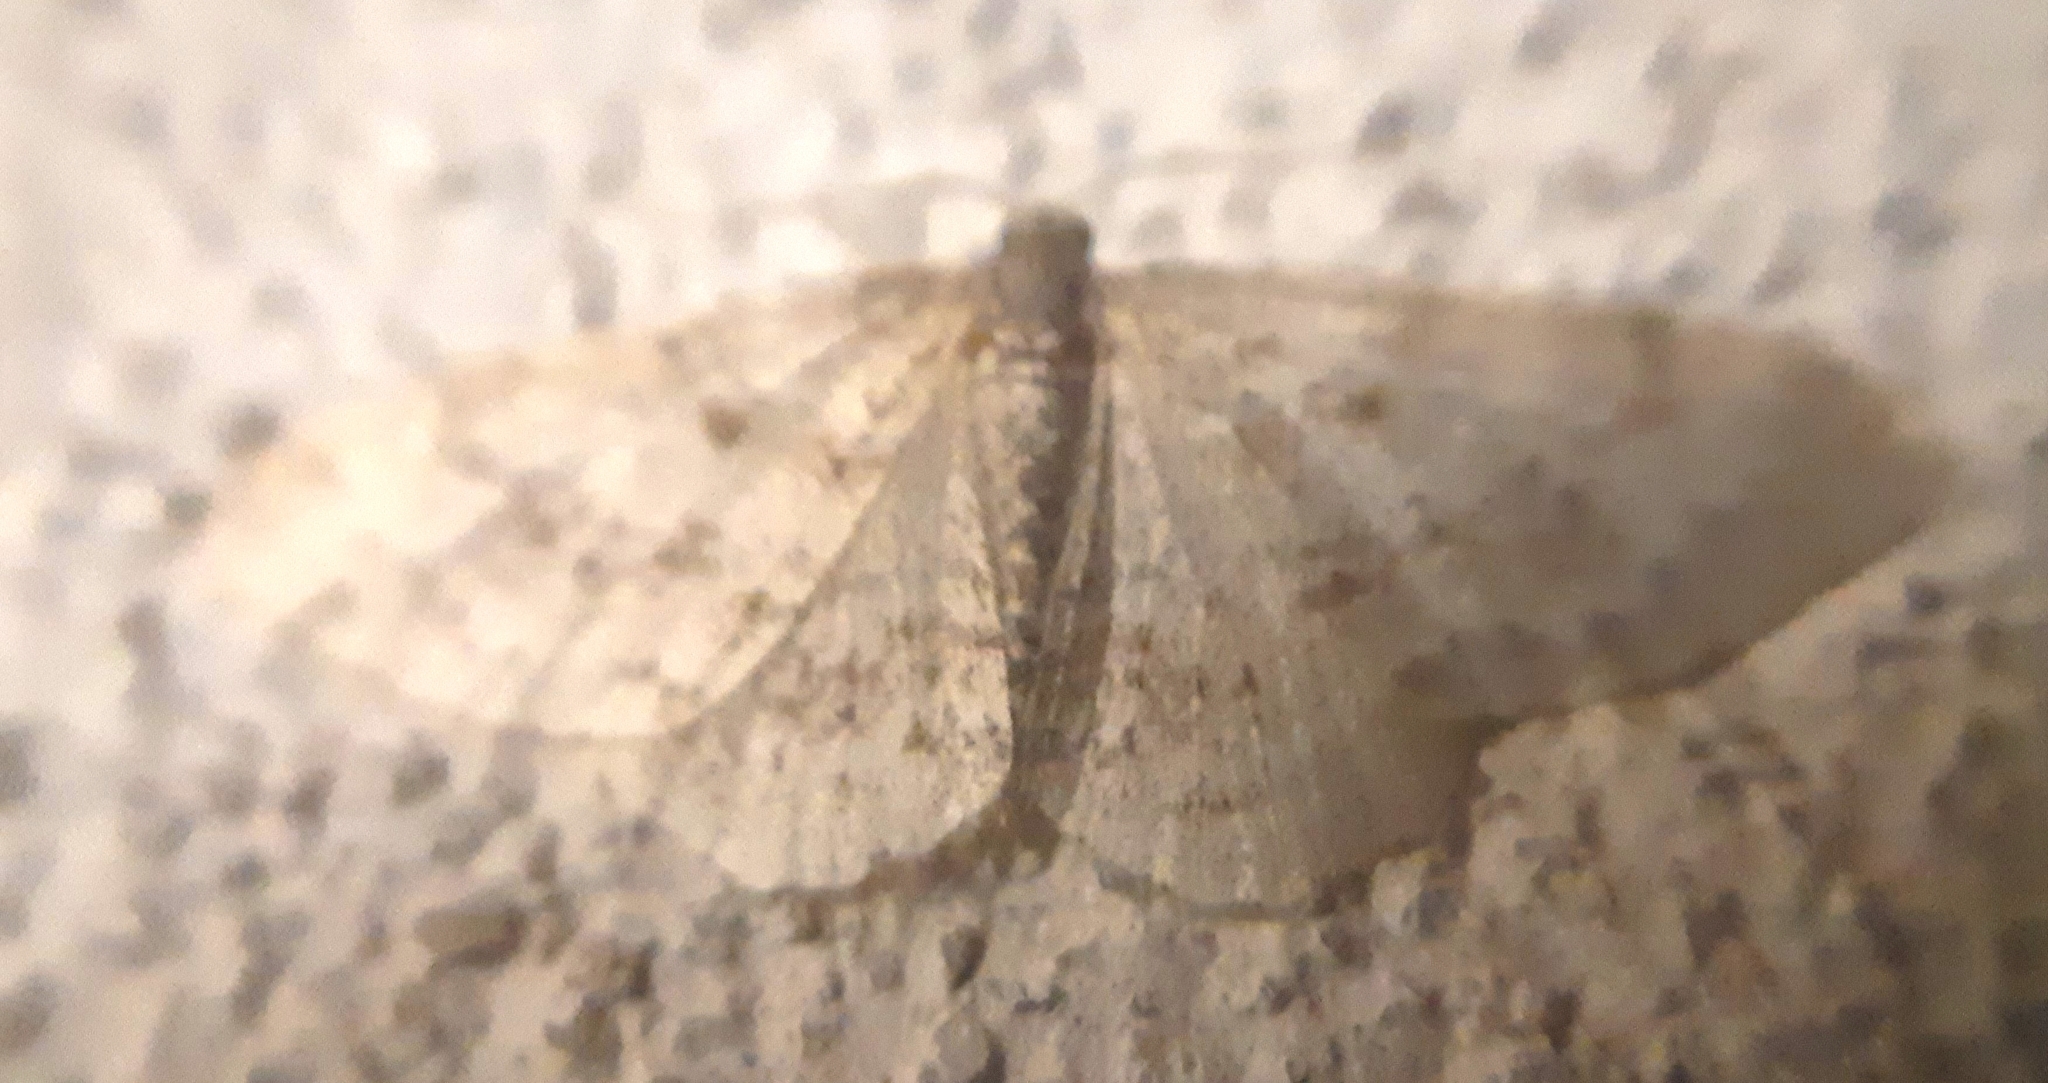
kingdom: Animalia
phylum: Arthropoda
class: Insecta
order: Lepidoptera
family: Geometridae
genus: Hydrelia
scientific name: Hydrelia sylvata
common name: Waved carpet
